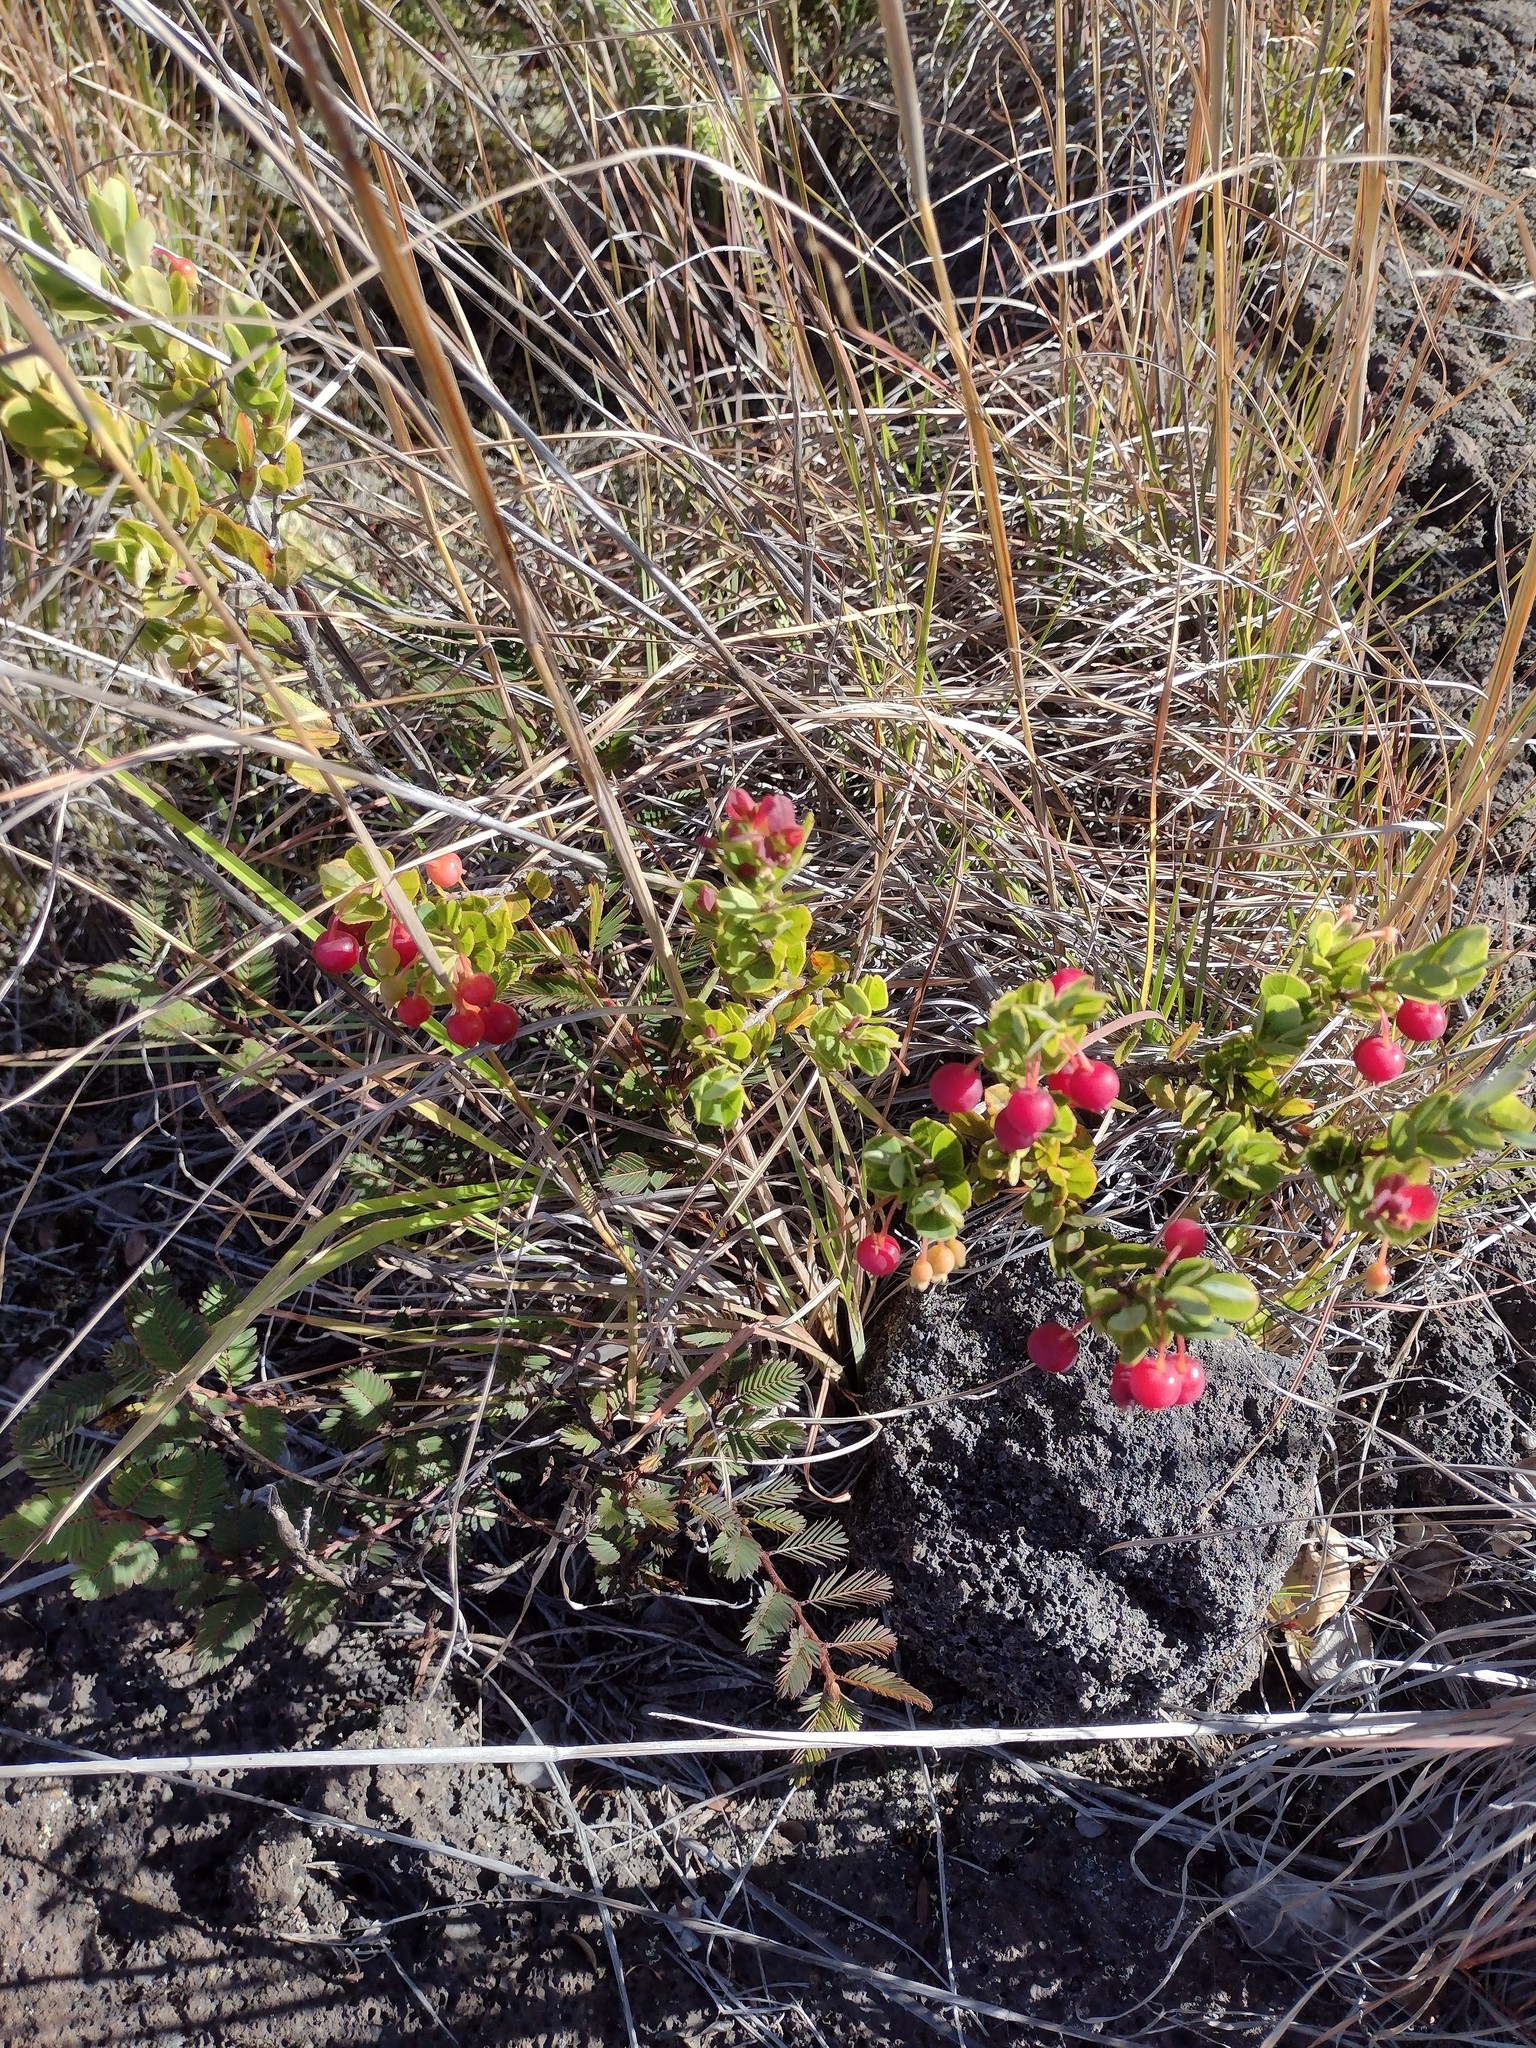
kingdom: Plantae
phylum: Tracheophyta
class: Magnoliopsida
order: Ericales
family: Ericaceae
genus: Vaccinium
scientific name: Vaccinium reticulatum
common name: Ohelo
